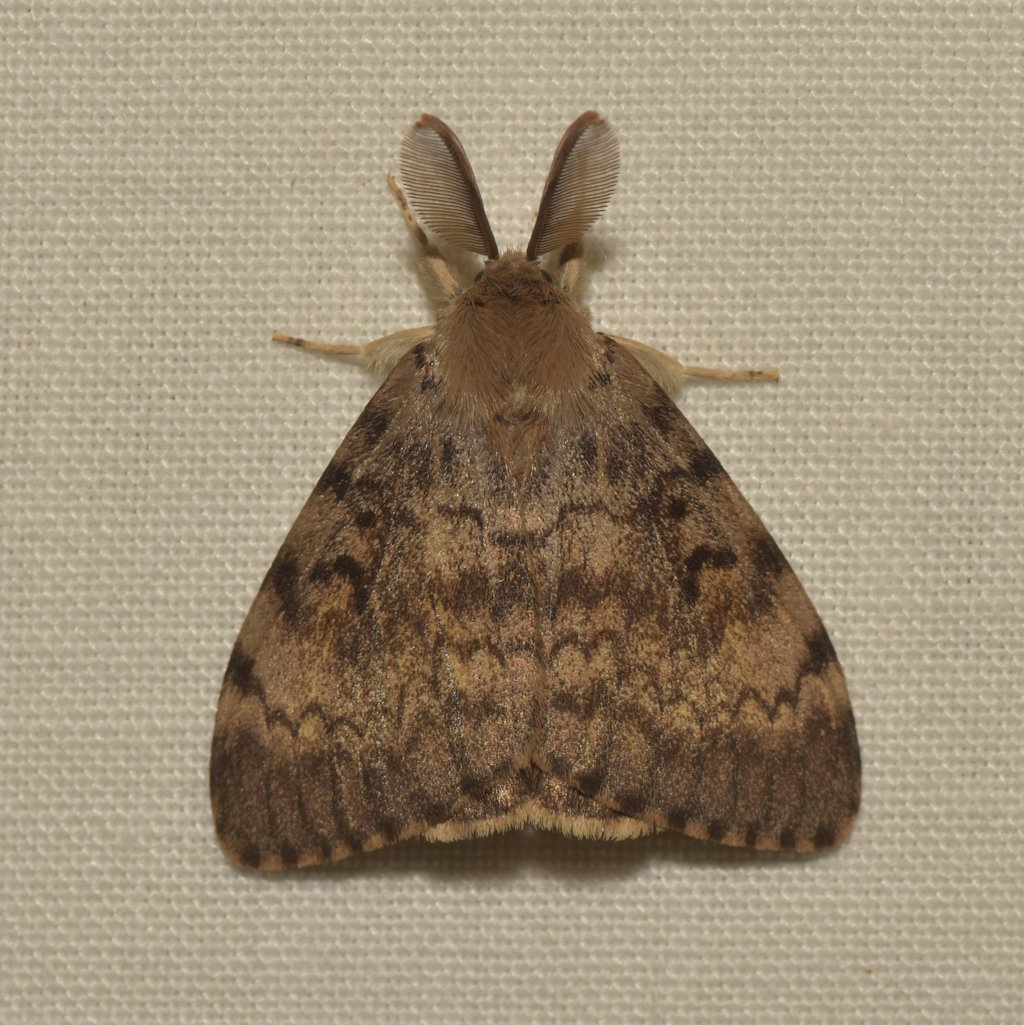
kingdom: Animalia
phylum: Arthropoda
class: Insecta
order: Lepidoptera
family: Erebidae
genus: Lymantria
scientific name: Lymantria dispar
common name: Gypsy moth
